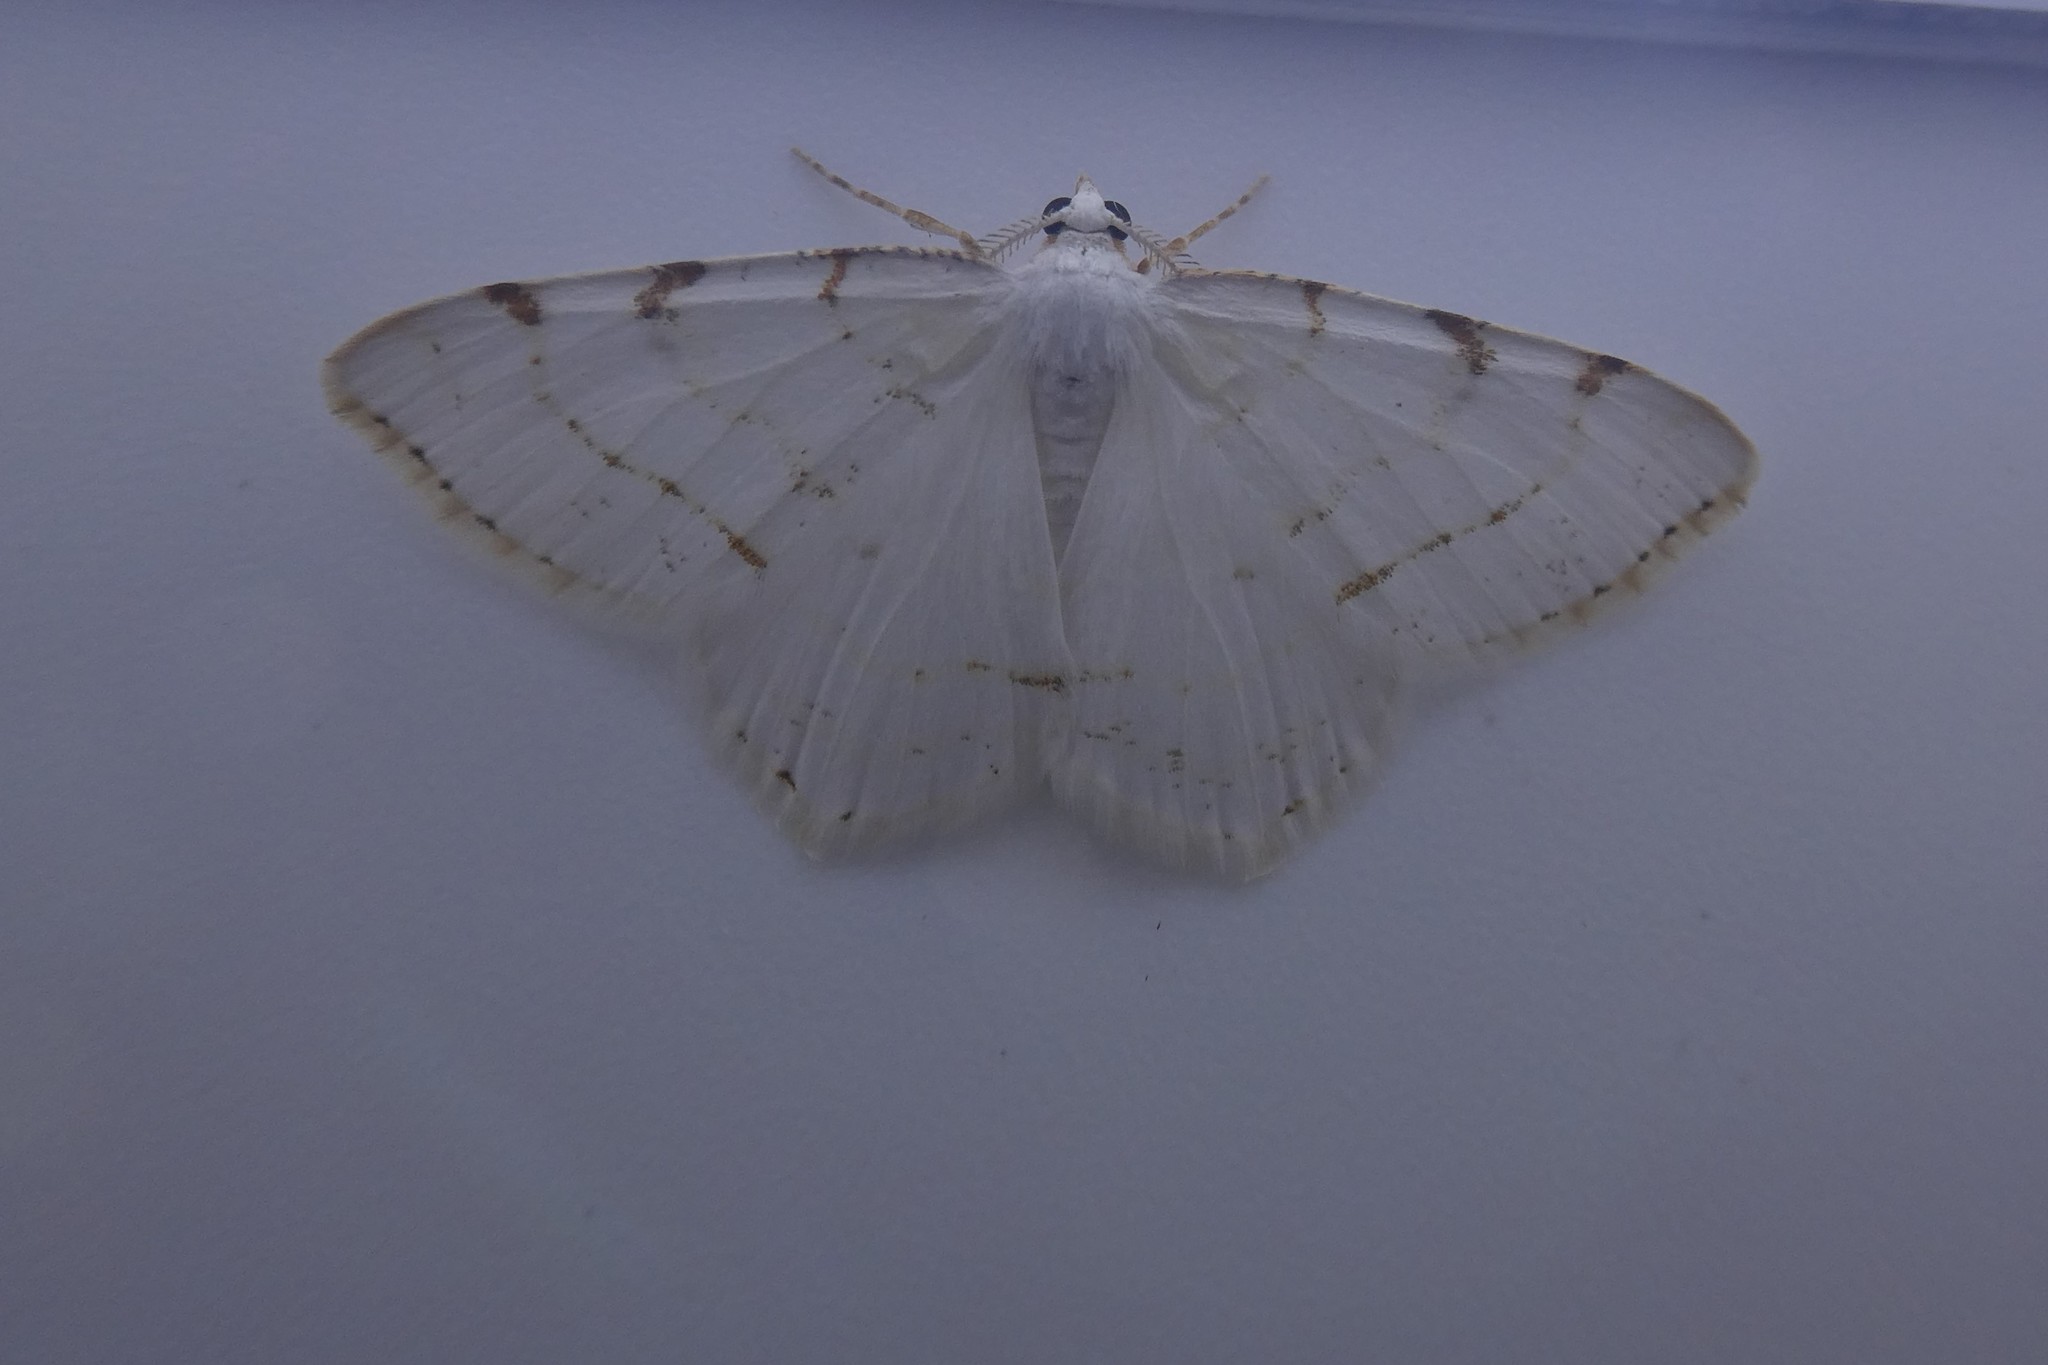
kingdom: Animalia
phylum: Arthropoda
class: Insecta
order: Lepidoptera
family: Geometridae
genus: Macaria
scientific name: Macaria pustularia
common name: Lesser maple spanworm moth
